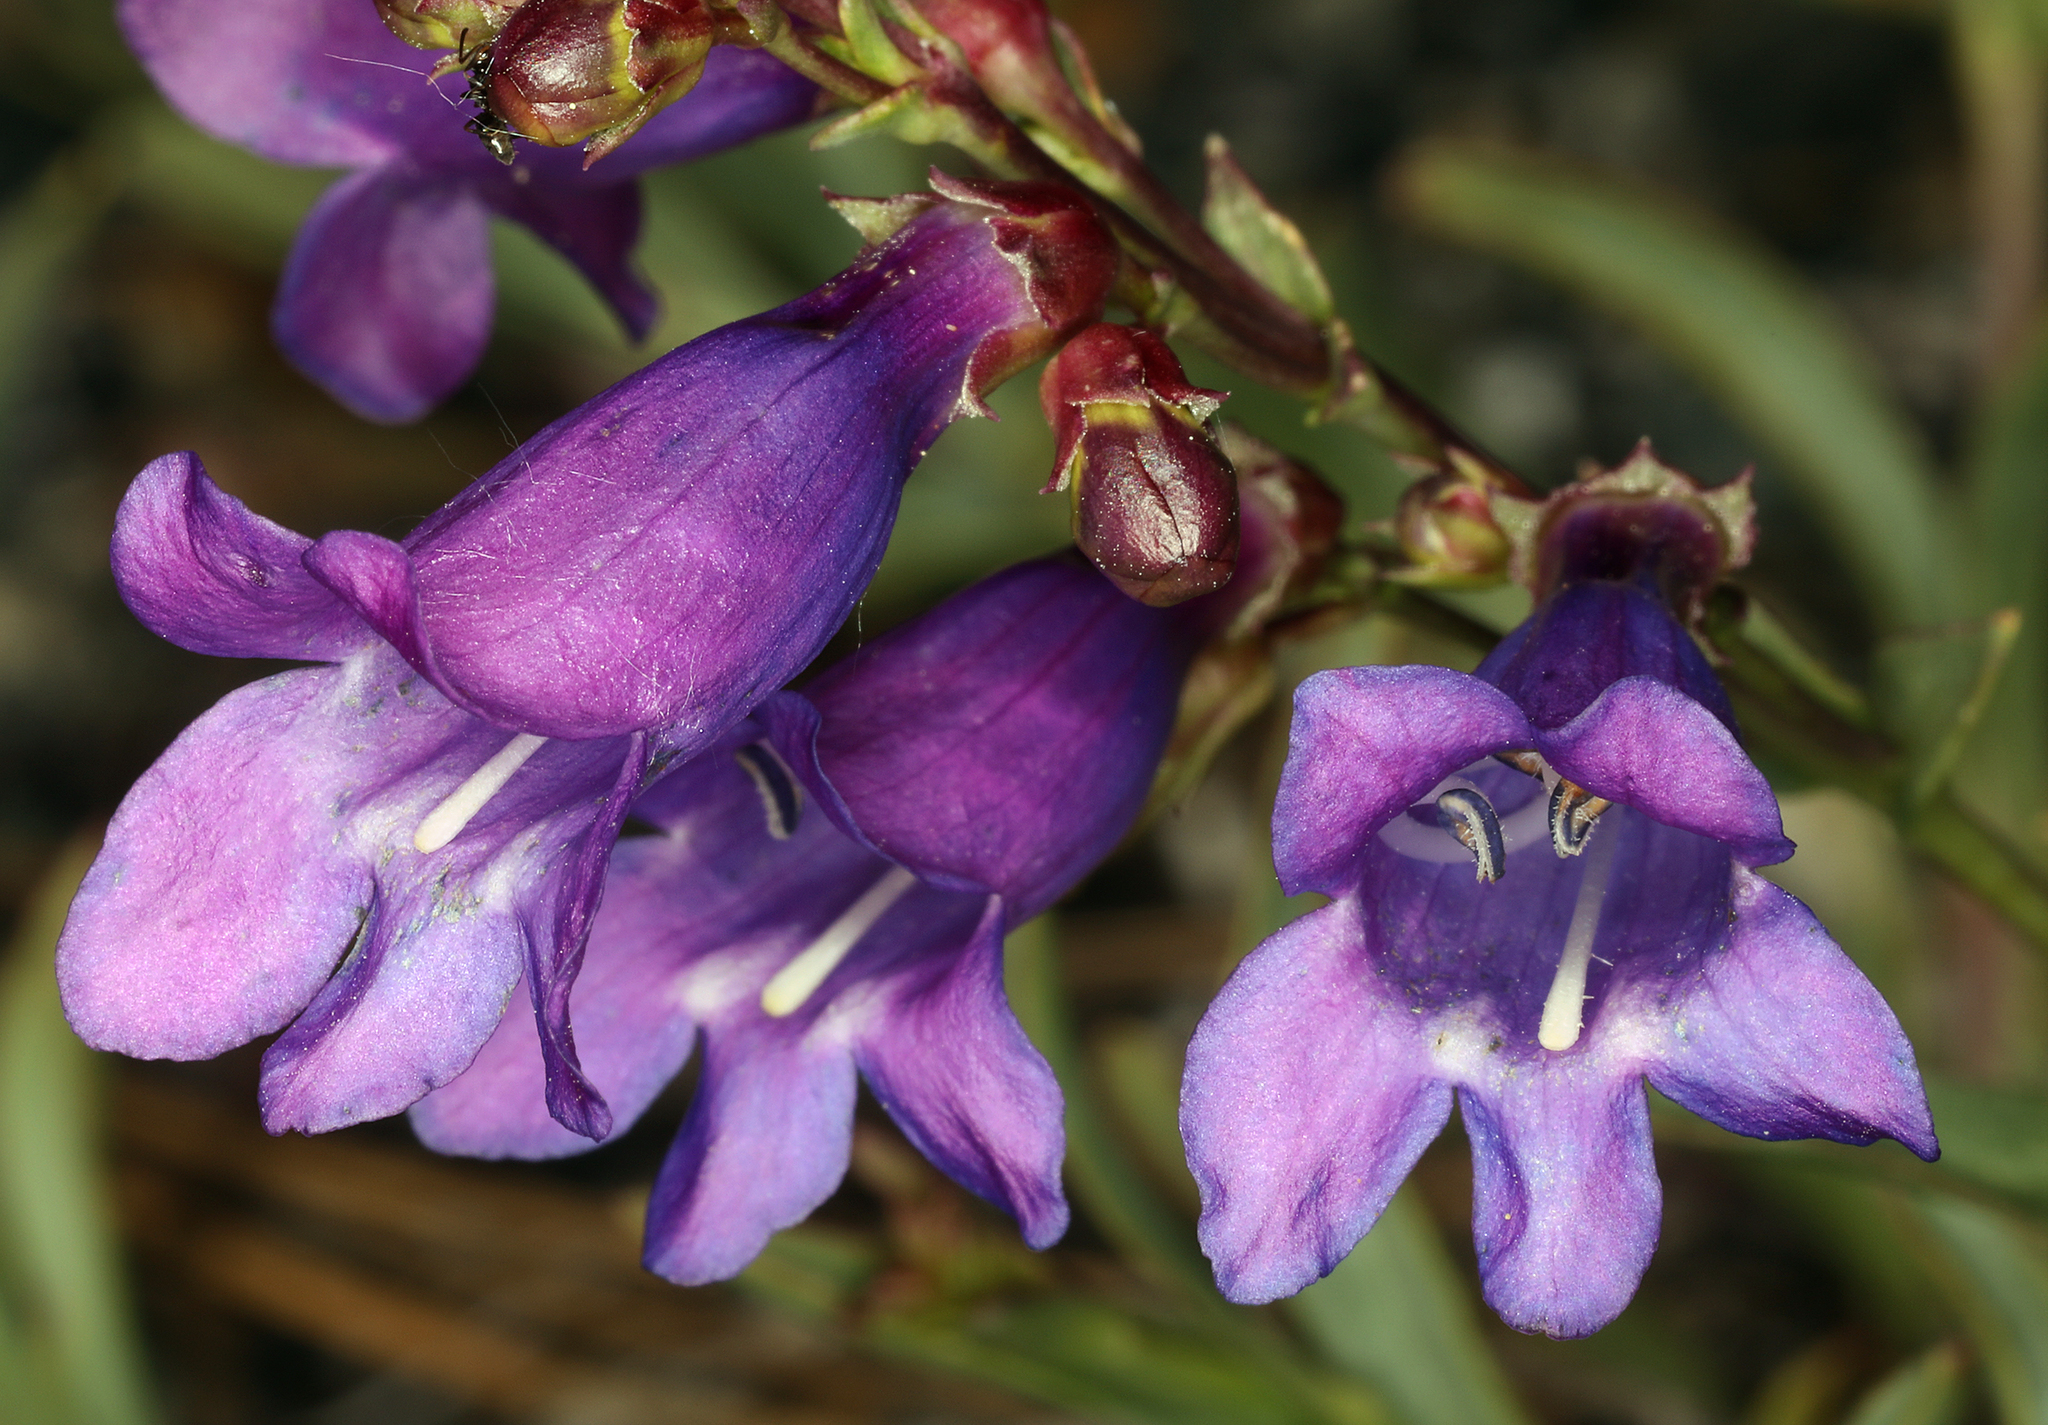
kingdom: Plantae
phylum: Tracheophyta
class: Magnoliopsida
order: Lamiales
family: Plantaginaceae
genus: Penstemon
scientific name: Penstemon parvulus
